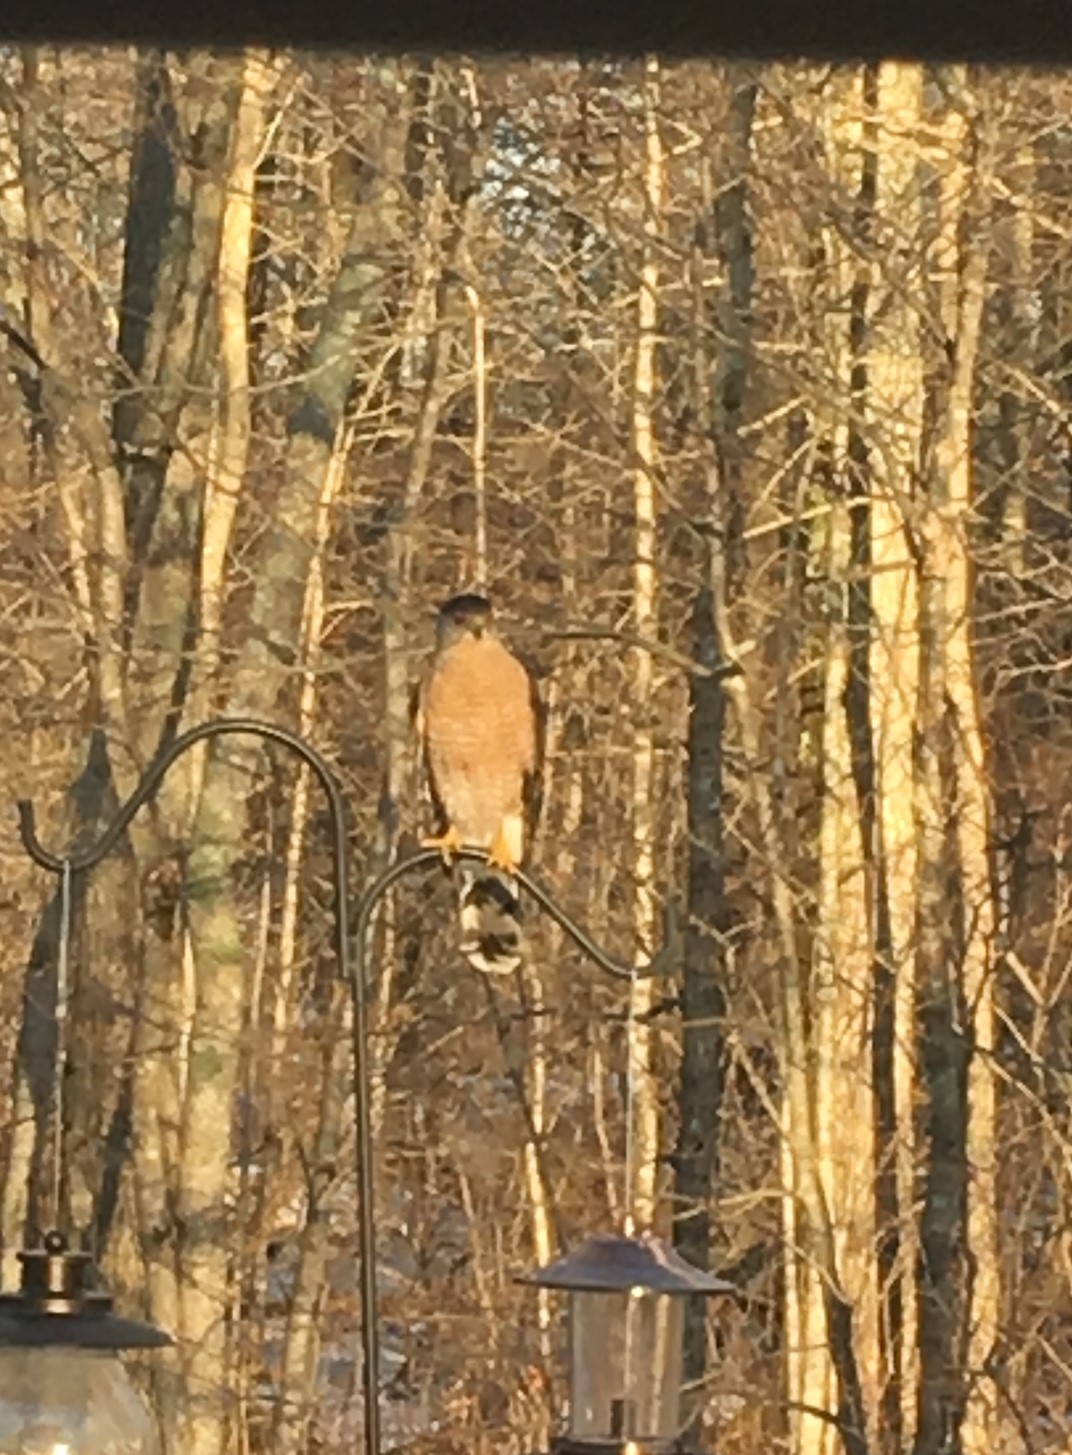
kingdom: Animalia
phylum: Chordata
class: Aves
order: Accipitriformes
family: Accipitridae
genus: Accipiter
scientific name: Accipiter cooperii
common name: Cooper's hawk
